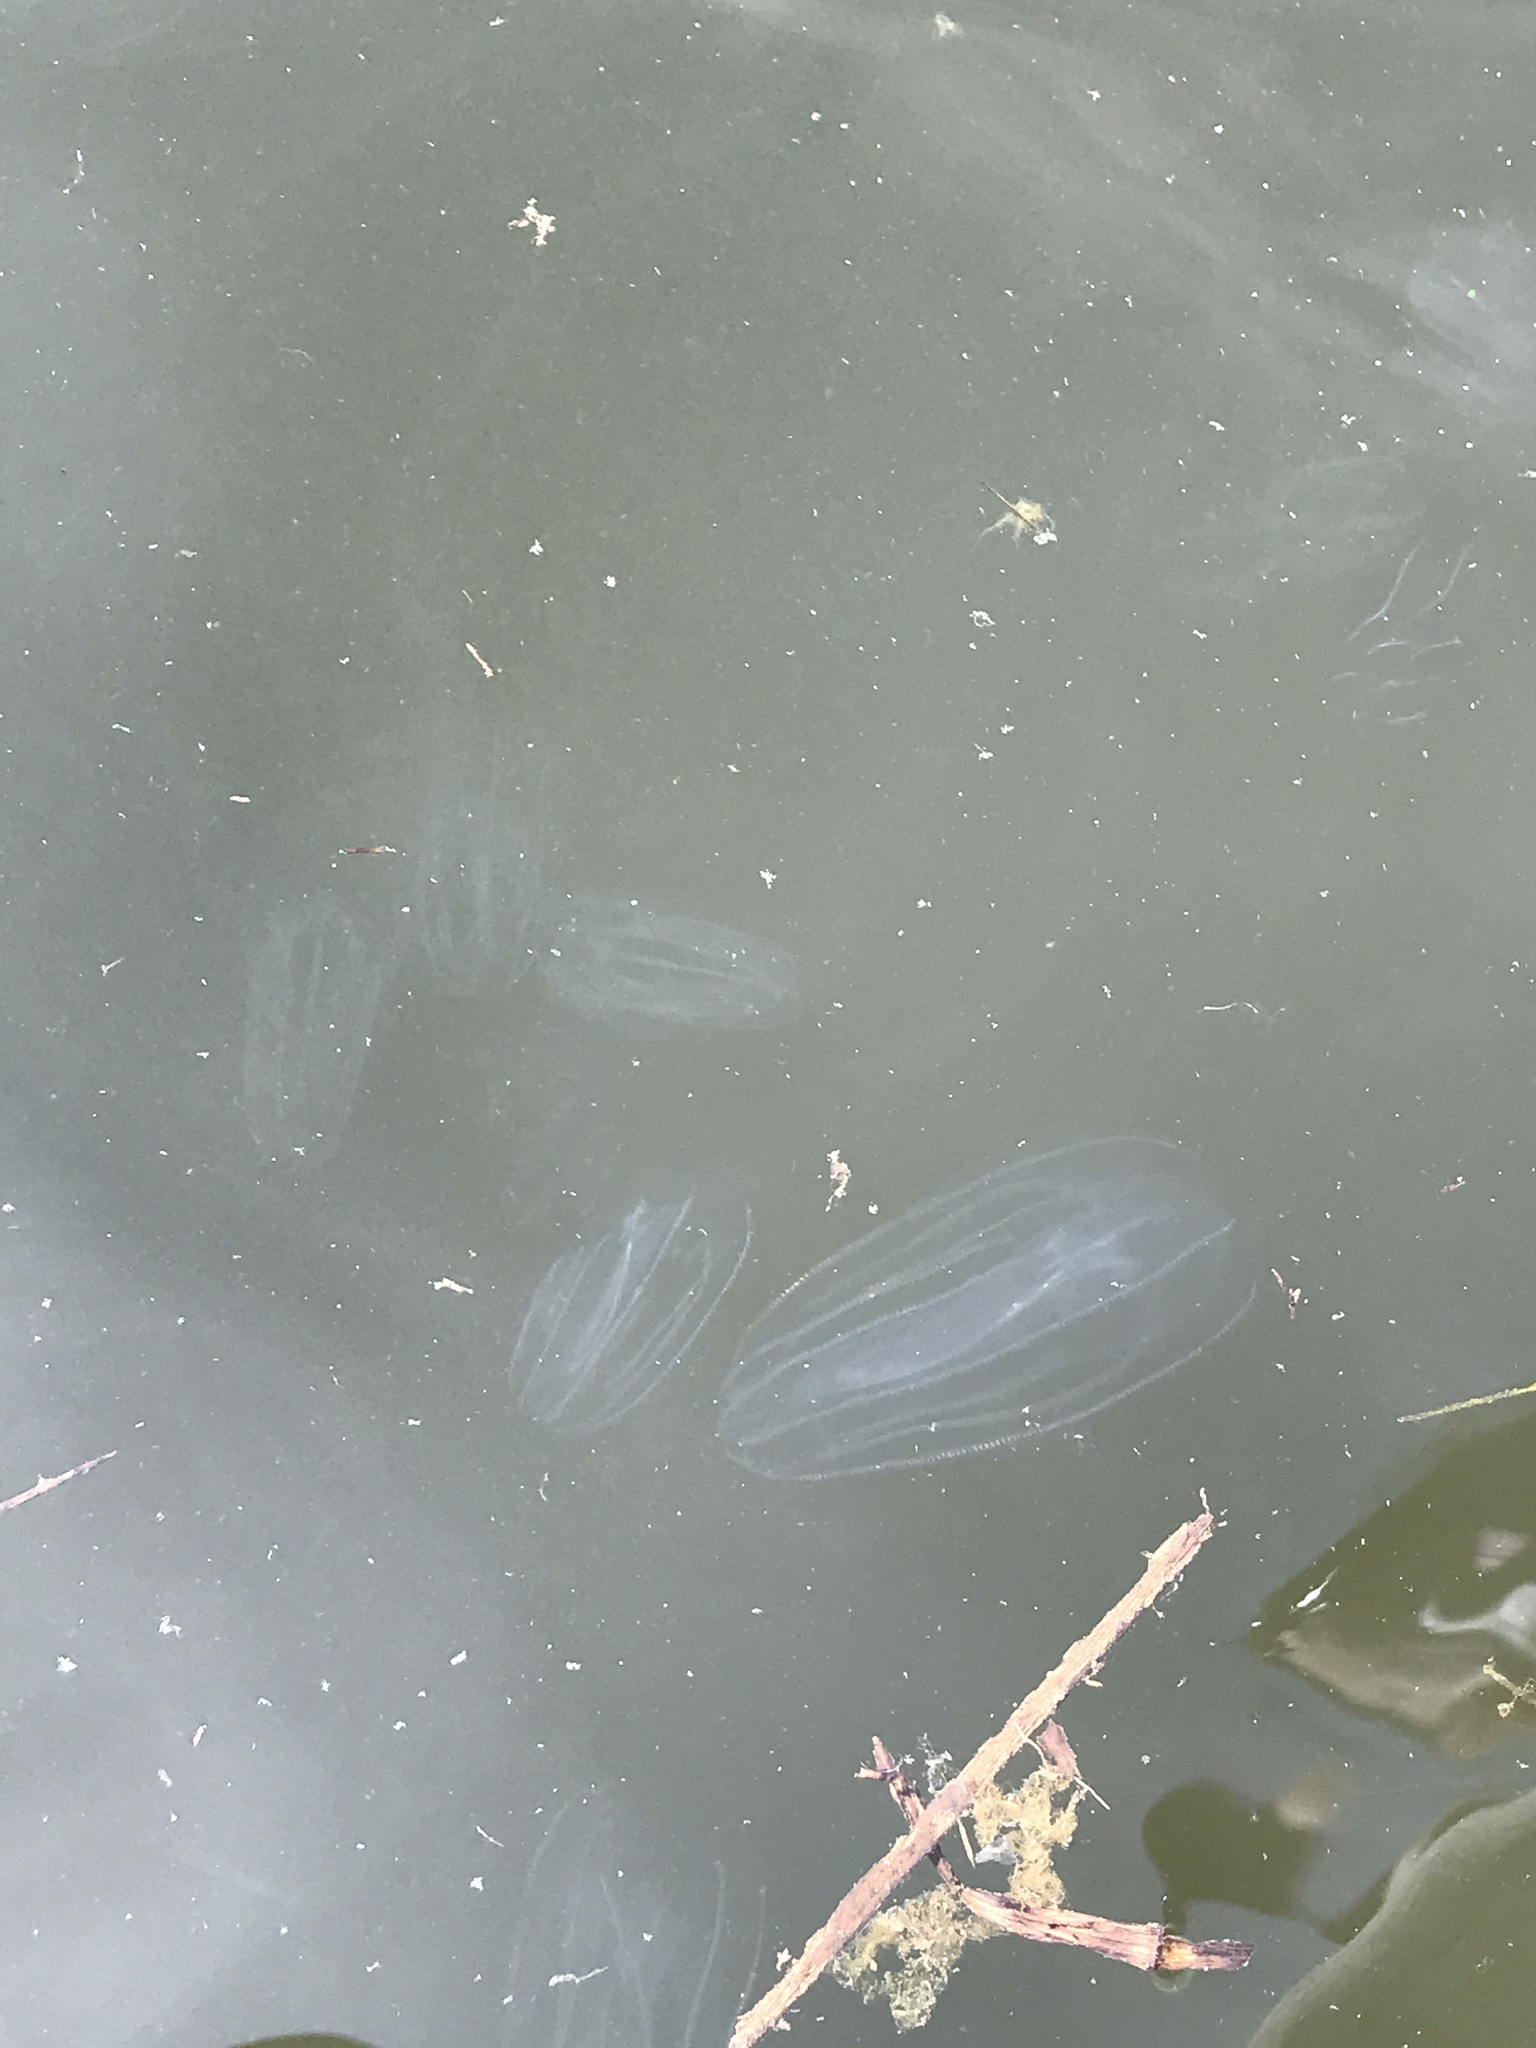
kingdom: Animalia
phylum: Ctenophora
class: Tentaculata
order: Lobata
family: Bolinopsidae
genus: Mnemiopsis
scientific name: Mnemiopsis leidyi
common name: American comb jelly
